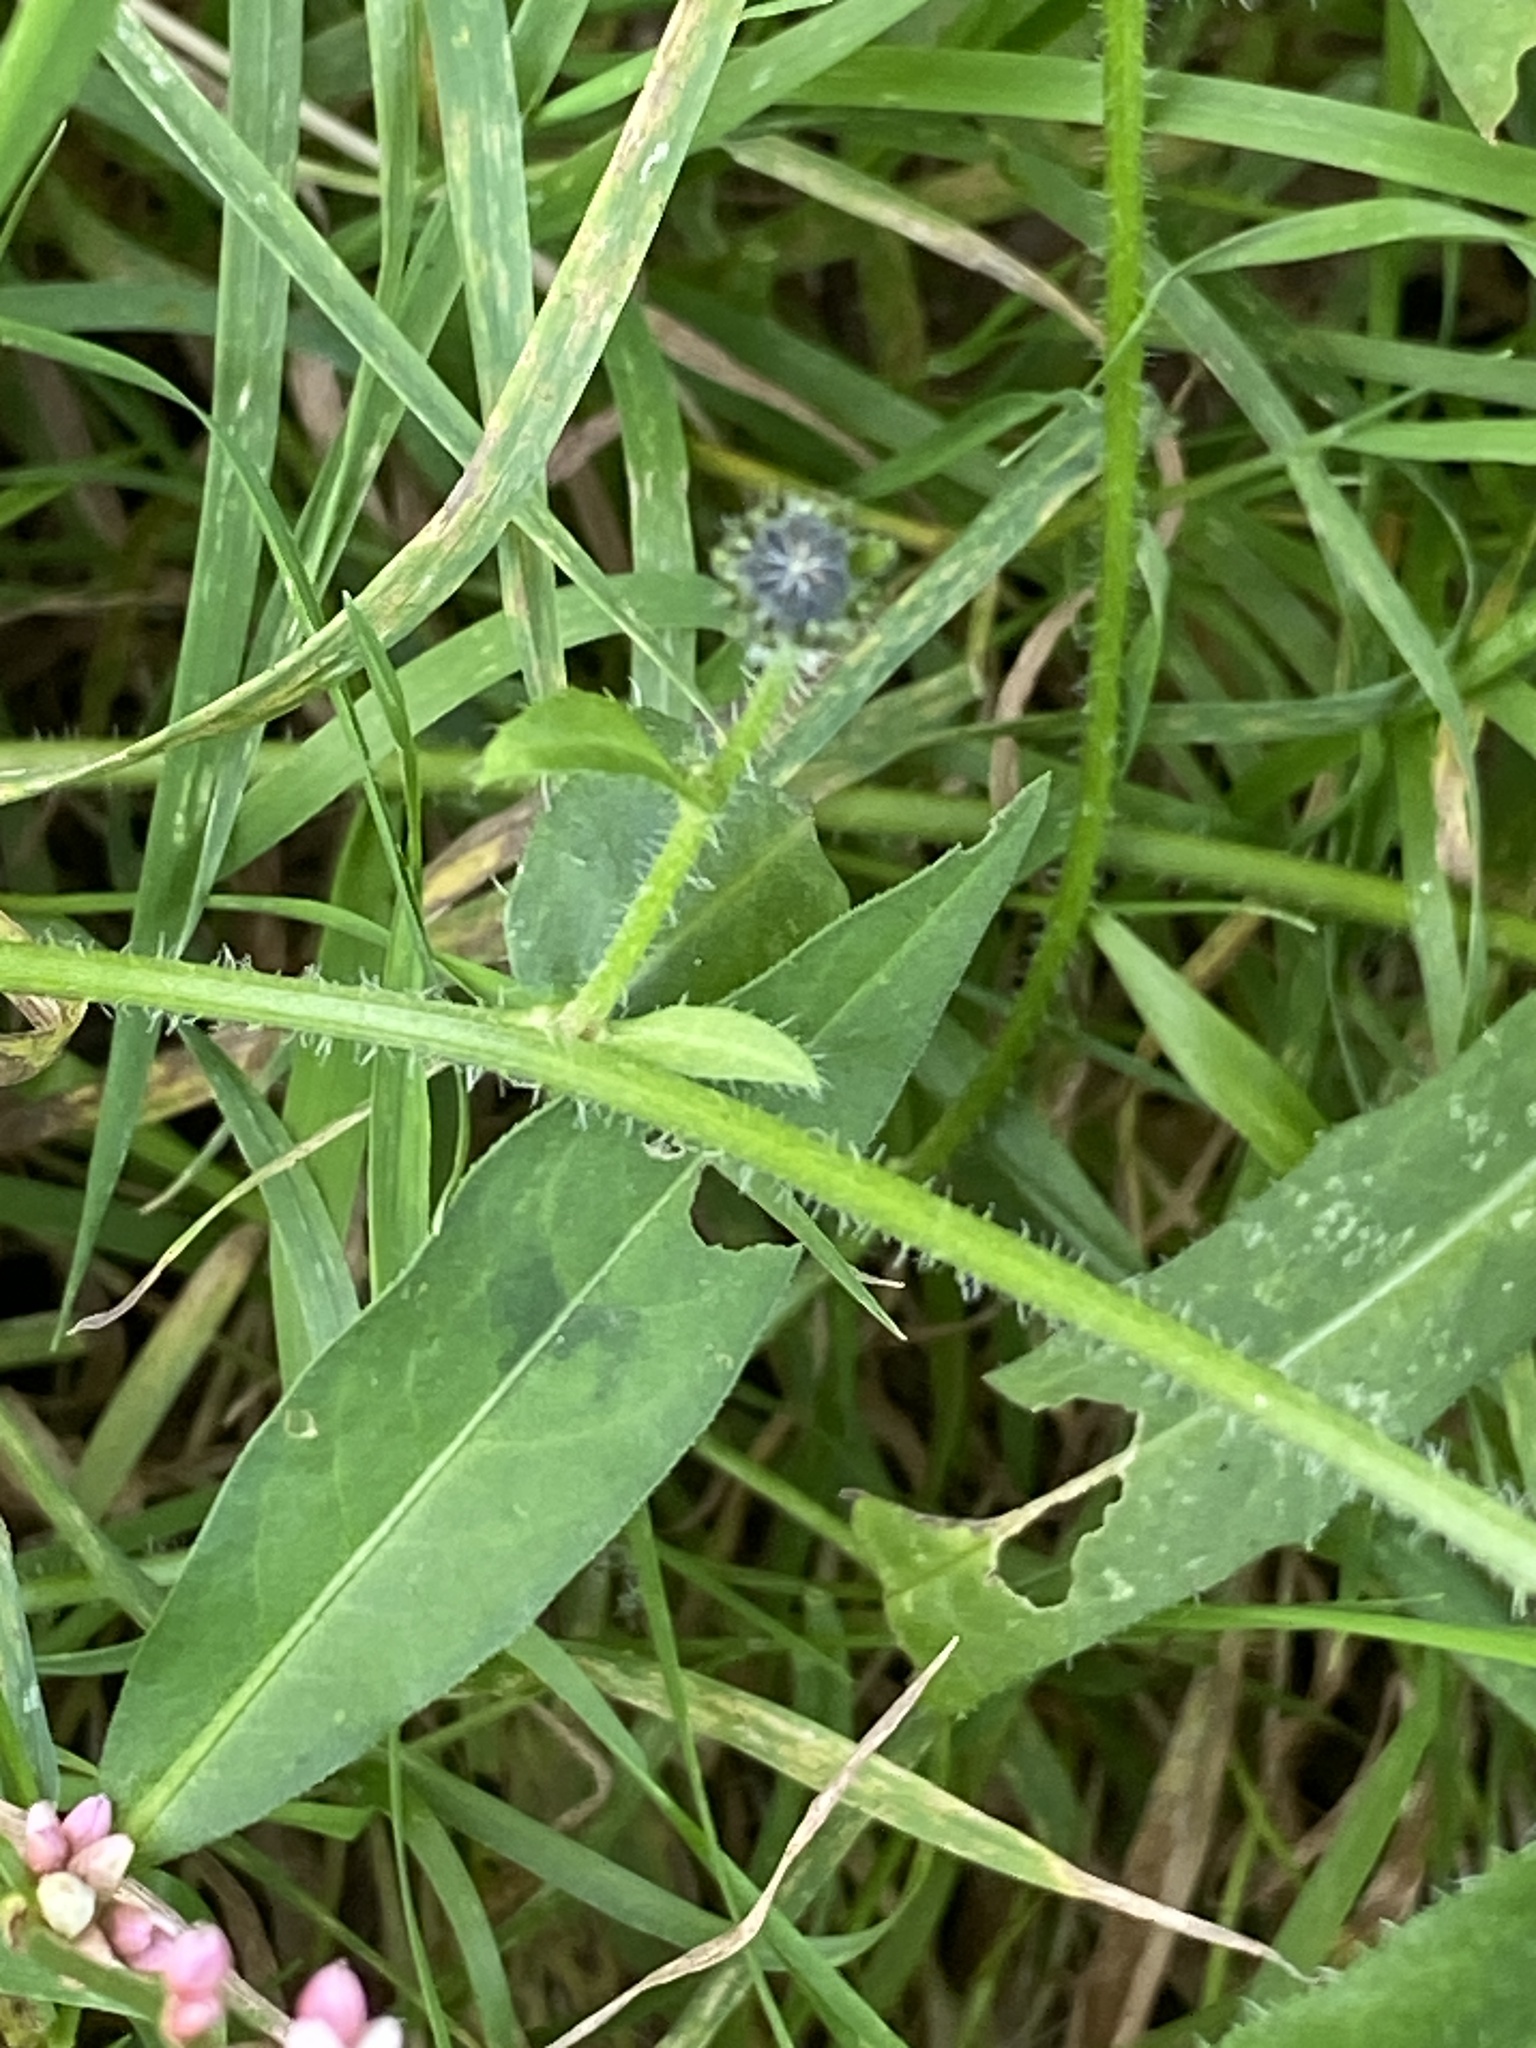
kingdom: Plantae
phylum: Tracheophyta
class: Magnoliopsida
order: Asterales
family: Asteraceae
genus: Picris
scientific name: Picris hieracioides
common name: Hawkweed oxtongue
